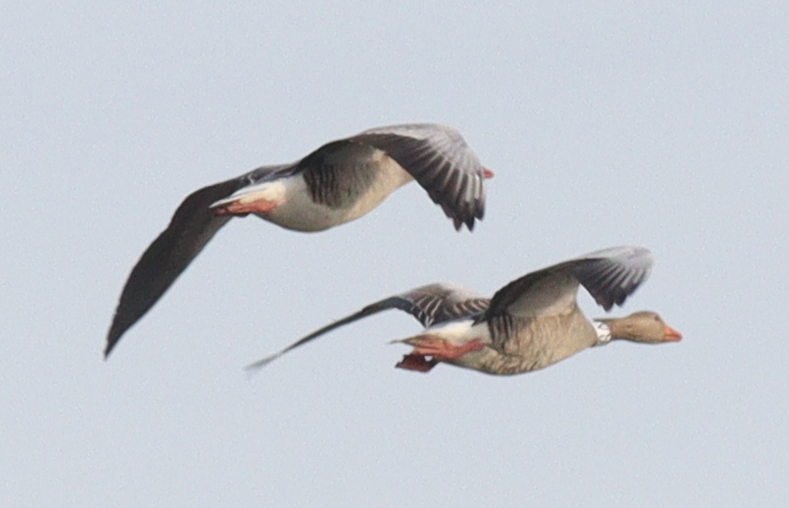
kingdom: Animalia
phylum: Chordata
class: Aves
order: Anseriformes
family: Anatidae
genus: Anser
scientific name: Anser anser
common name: Greylag goose
